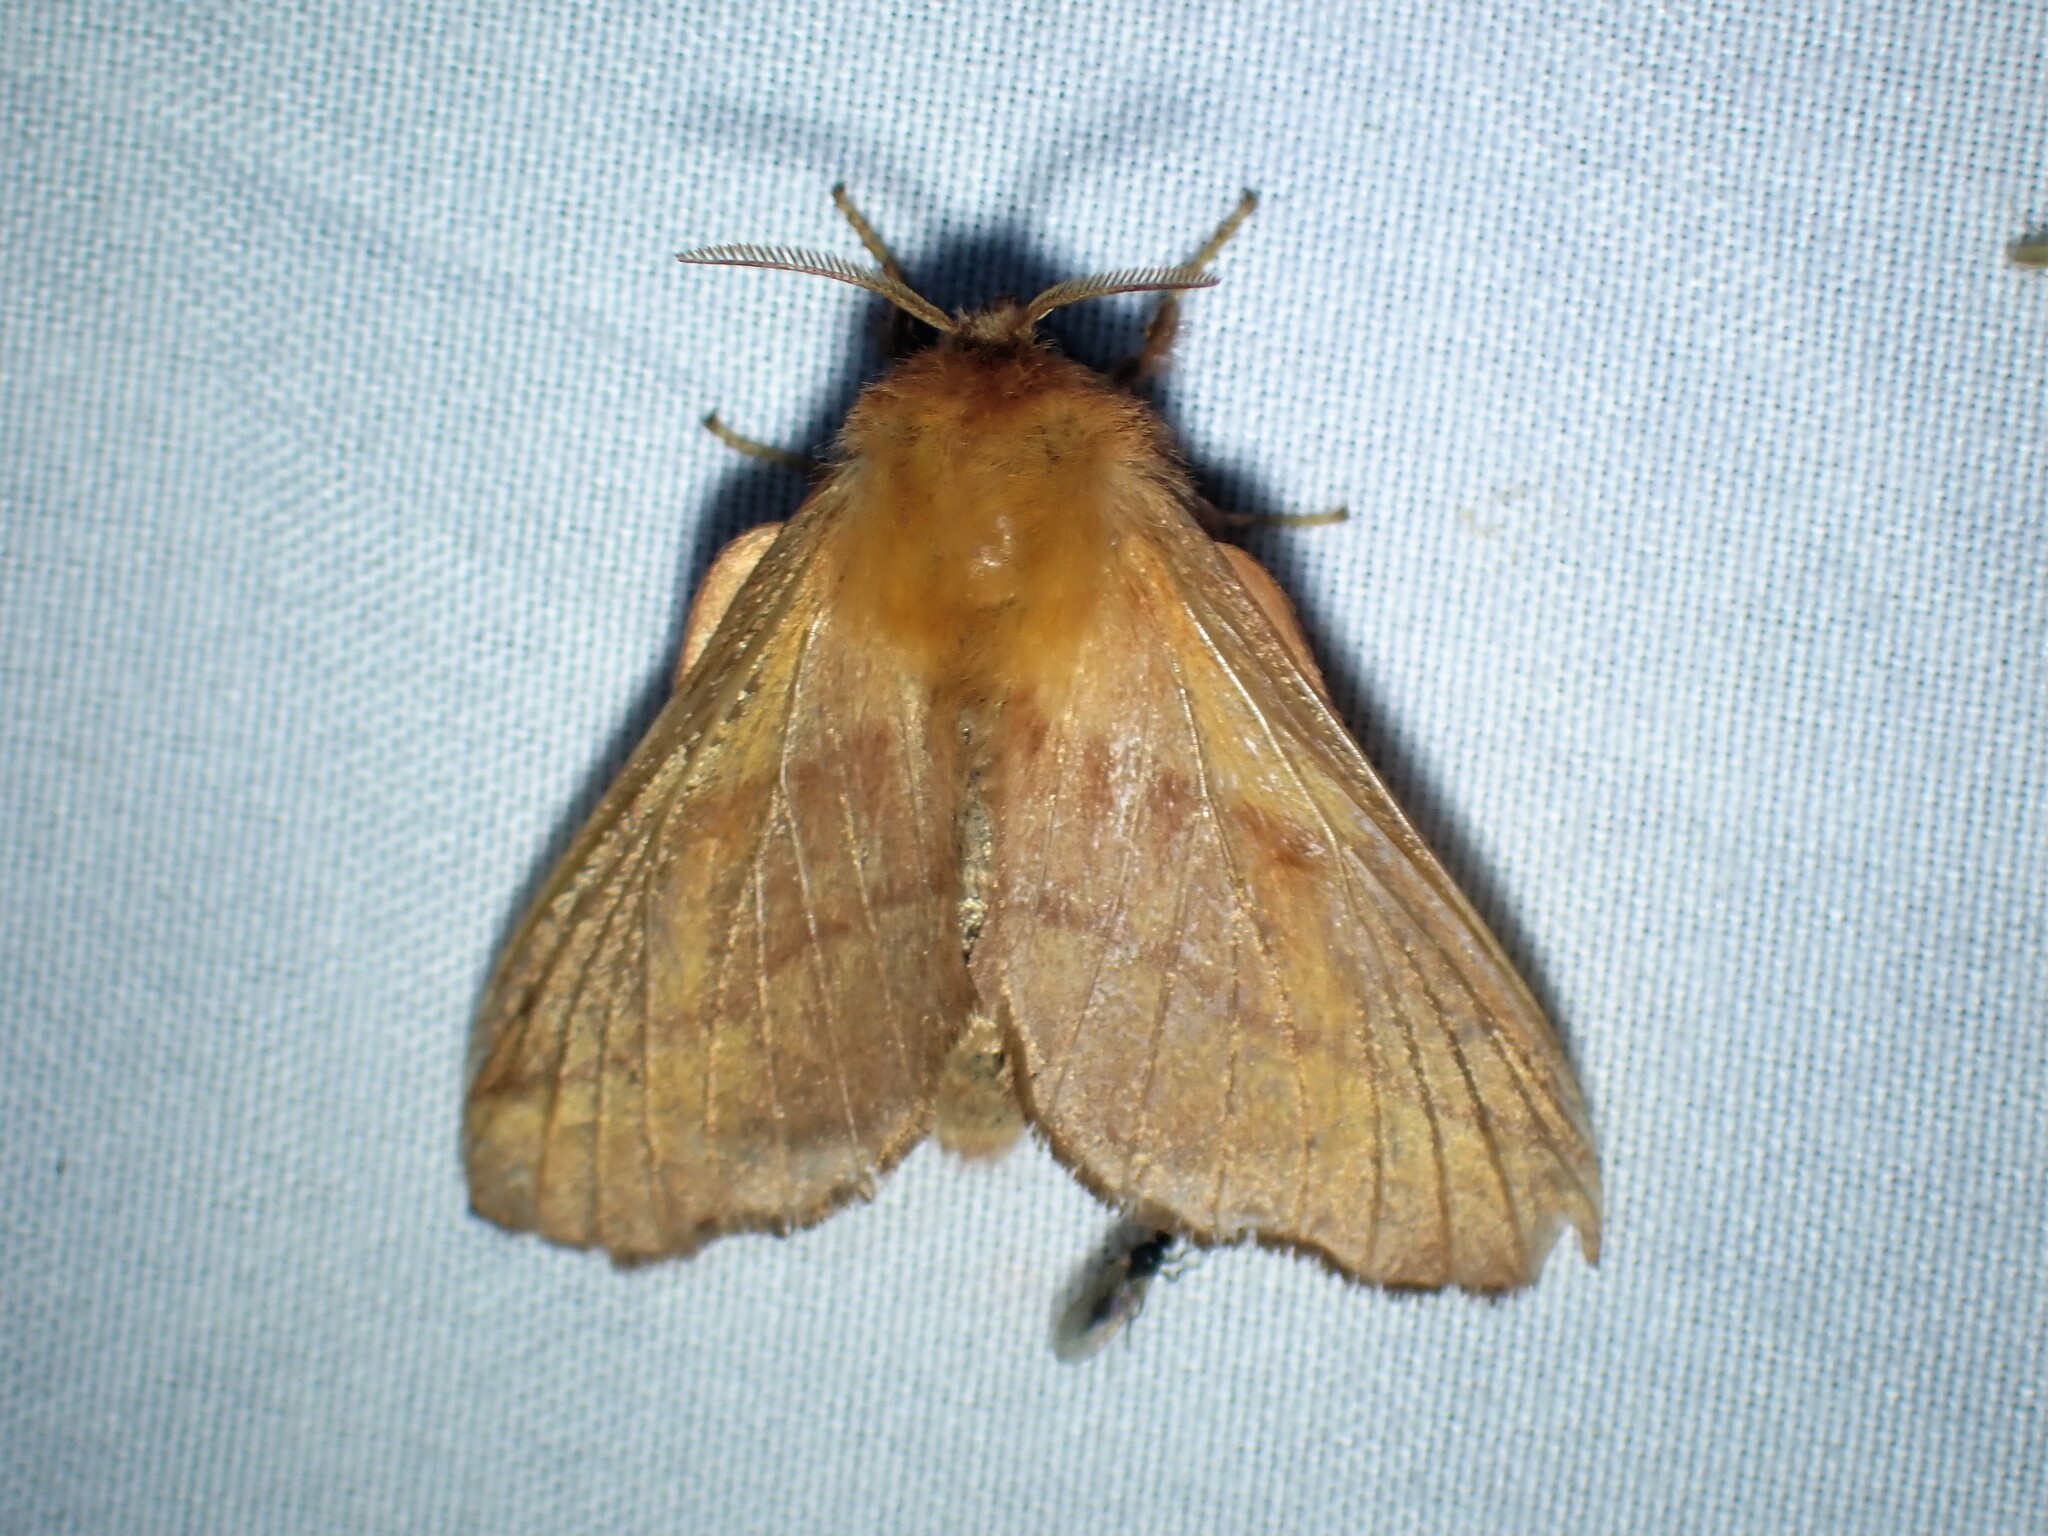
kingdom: Animalia
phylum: Arthropoda
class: Insecta
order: Lepidoptera
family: Lasiocampidae
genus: Malacosoma
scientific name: Malacosoma disstria
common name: Forest tent caterpillar
